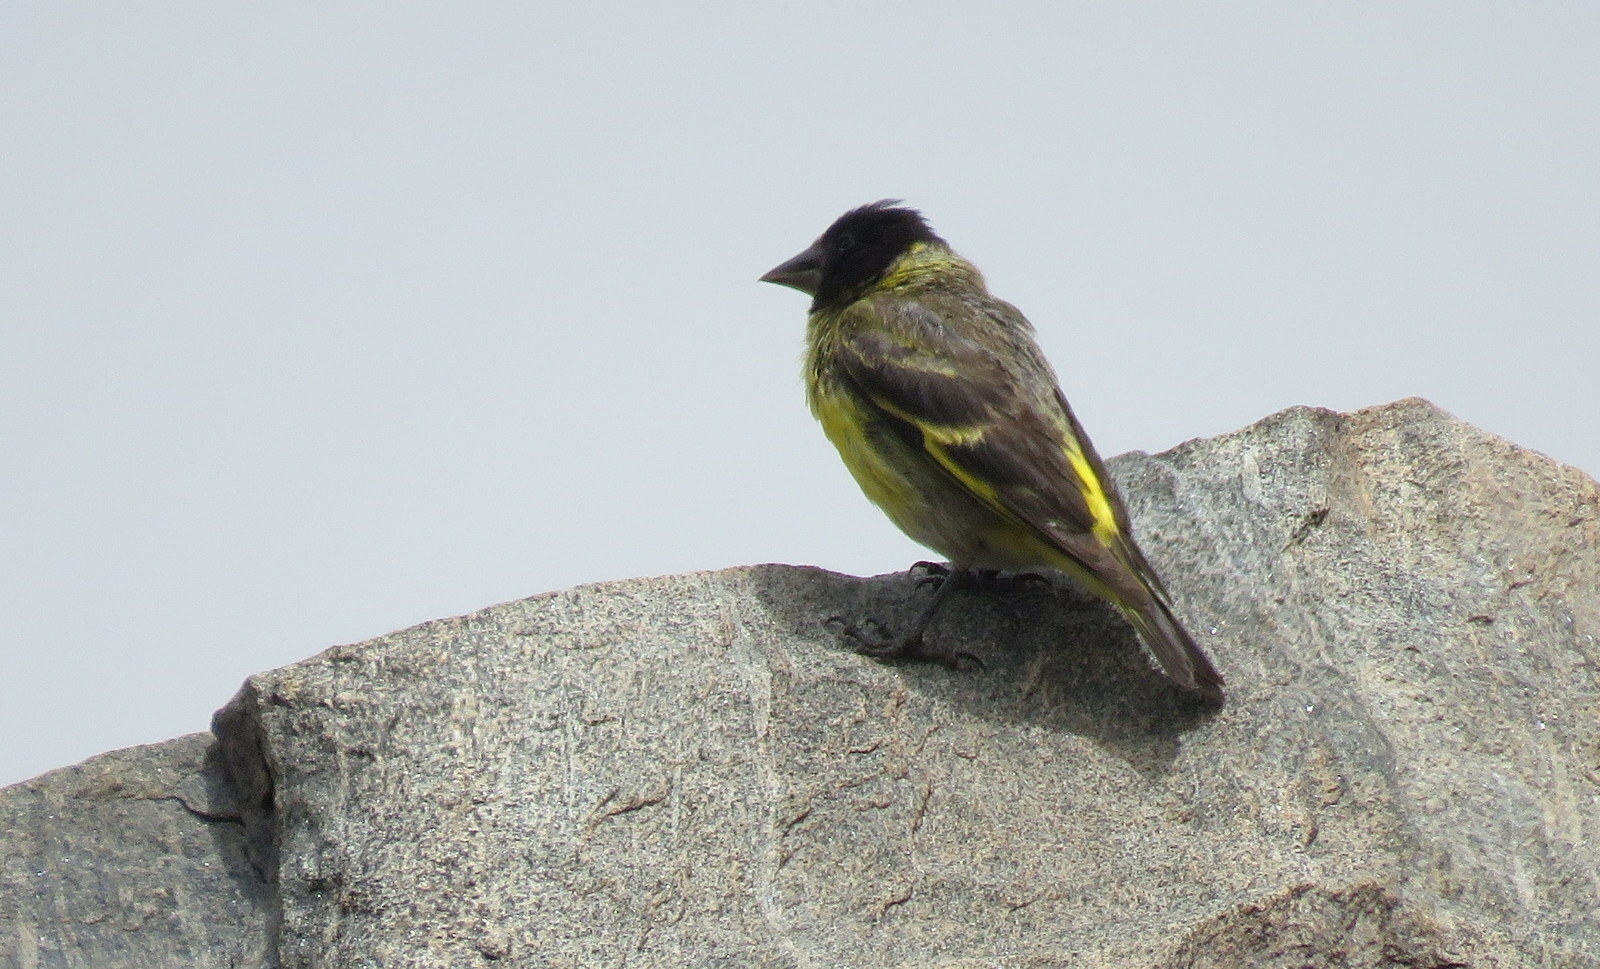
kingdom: Animalia
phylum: Chordata
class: Aves
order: Passeriformes
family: Fringillidae
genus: Spinus
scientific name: Spinus crassirostris
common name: Thick-billed siskin
